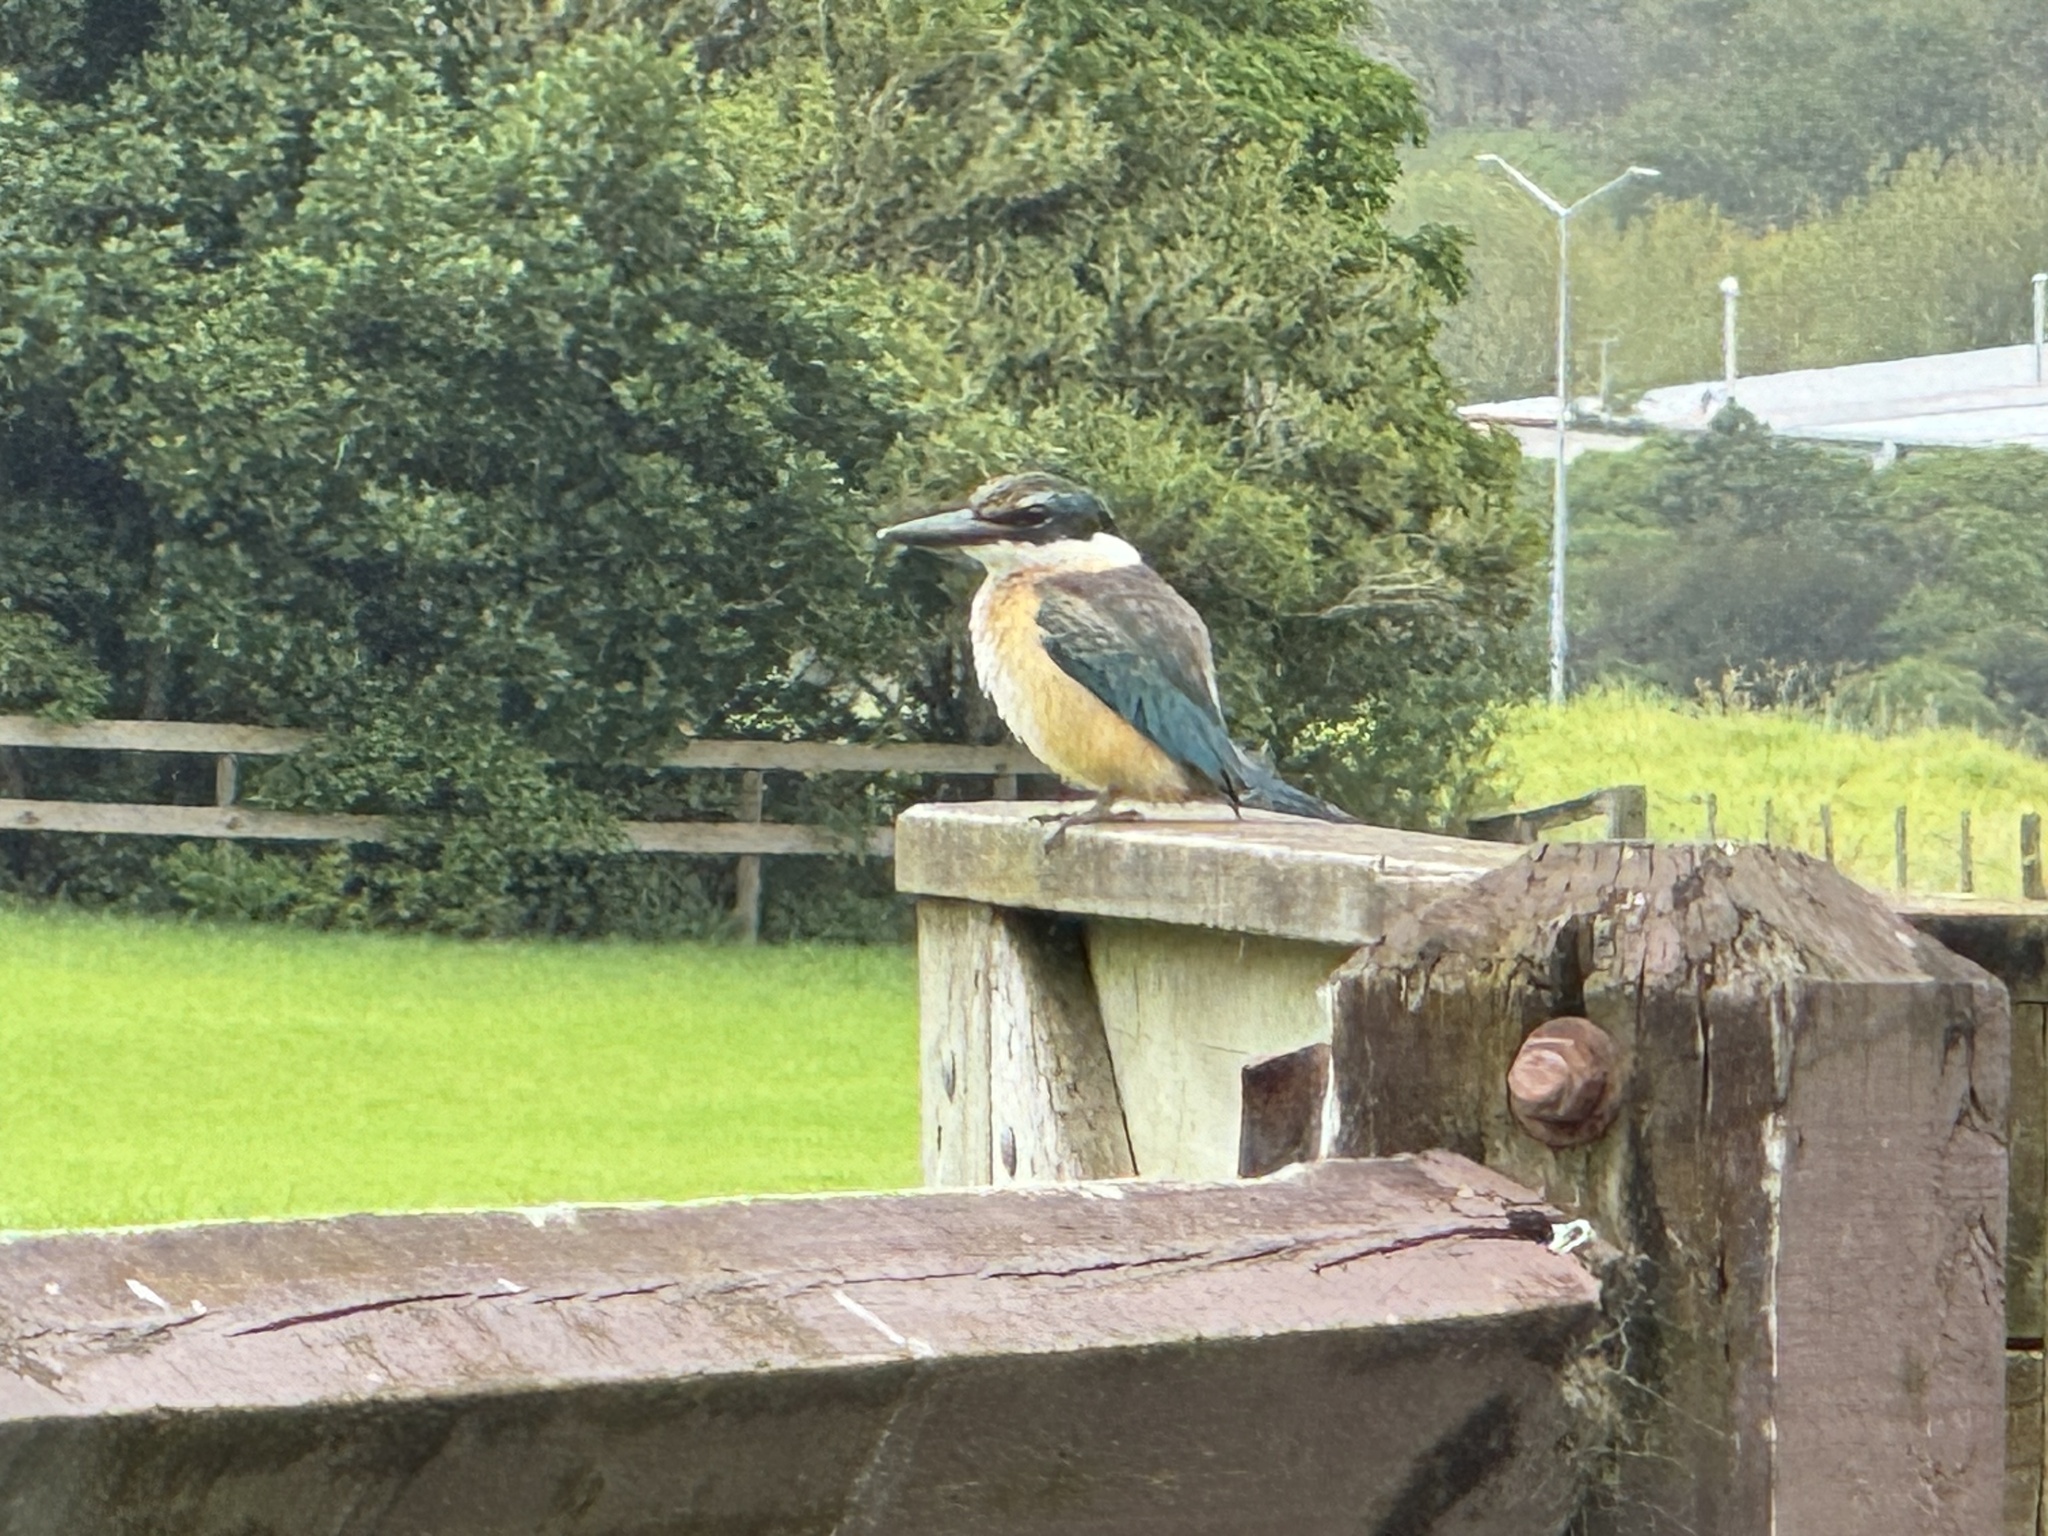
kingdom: Animalia
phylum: Chordata
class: Aves
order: Coraciiformes
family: Alcedinidae
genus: Todiramphus
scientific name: Todiramphus sanctus
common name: Sacred kingfisher
